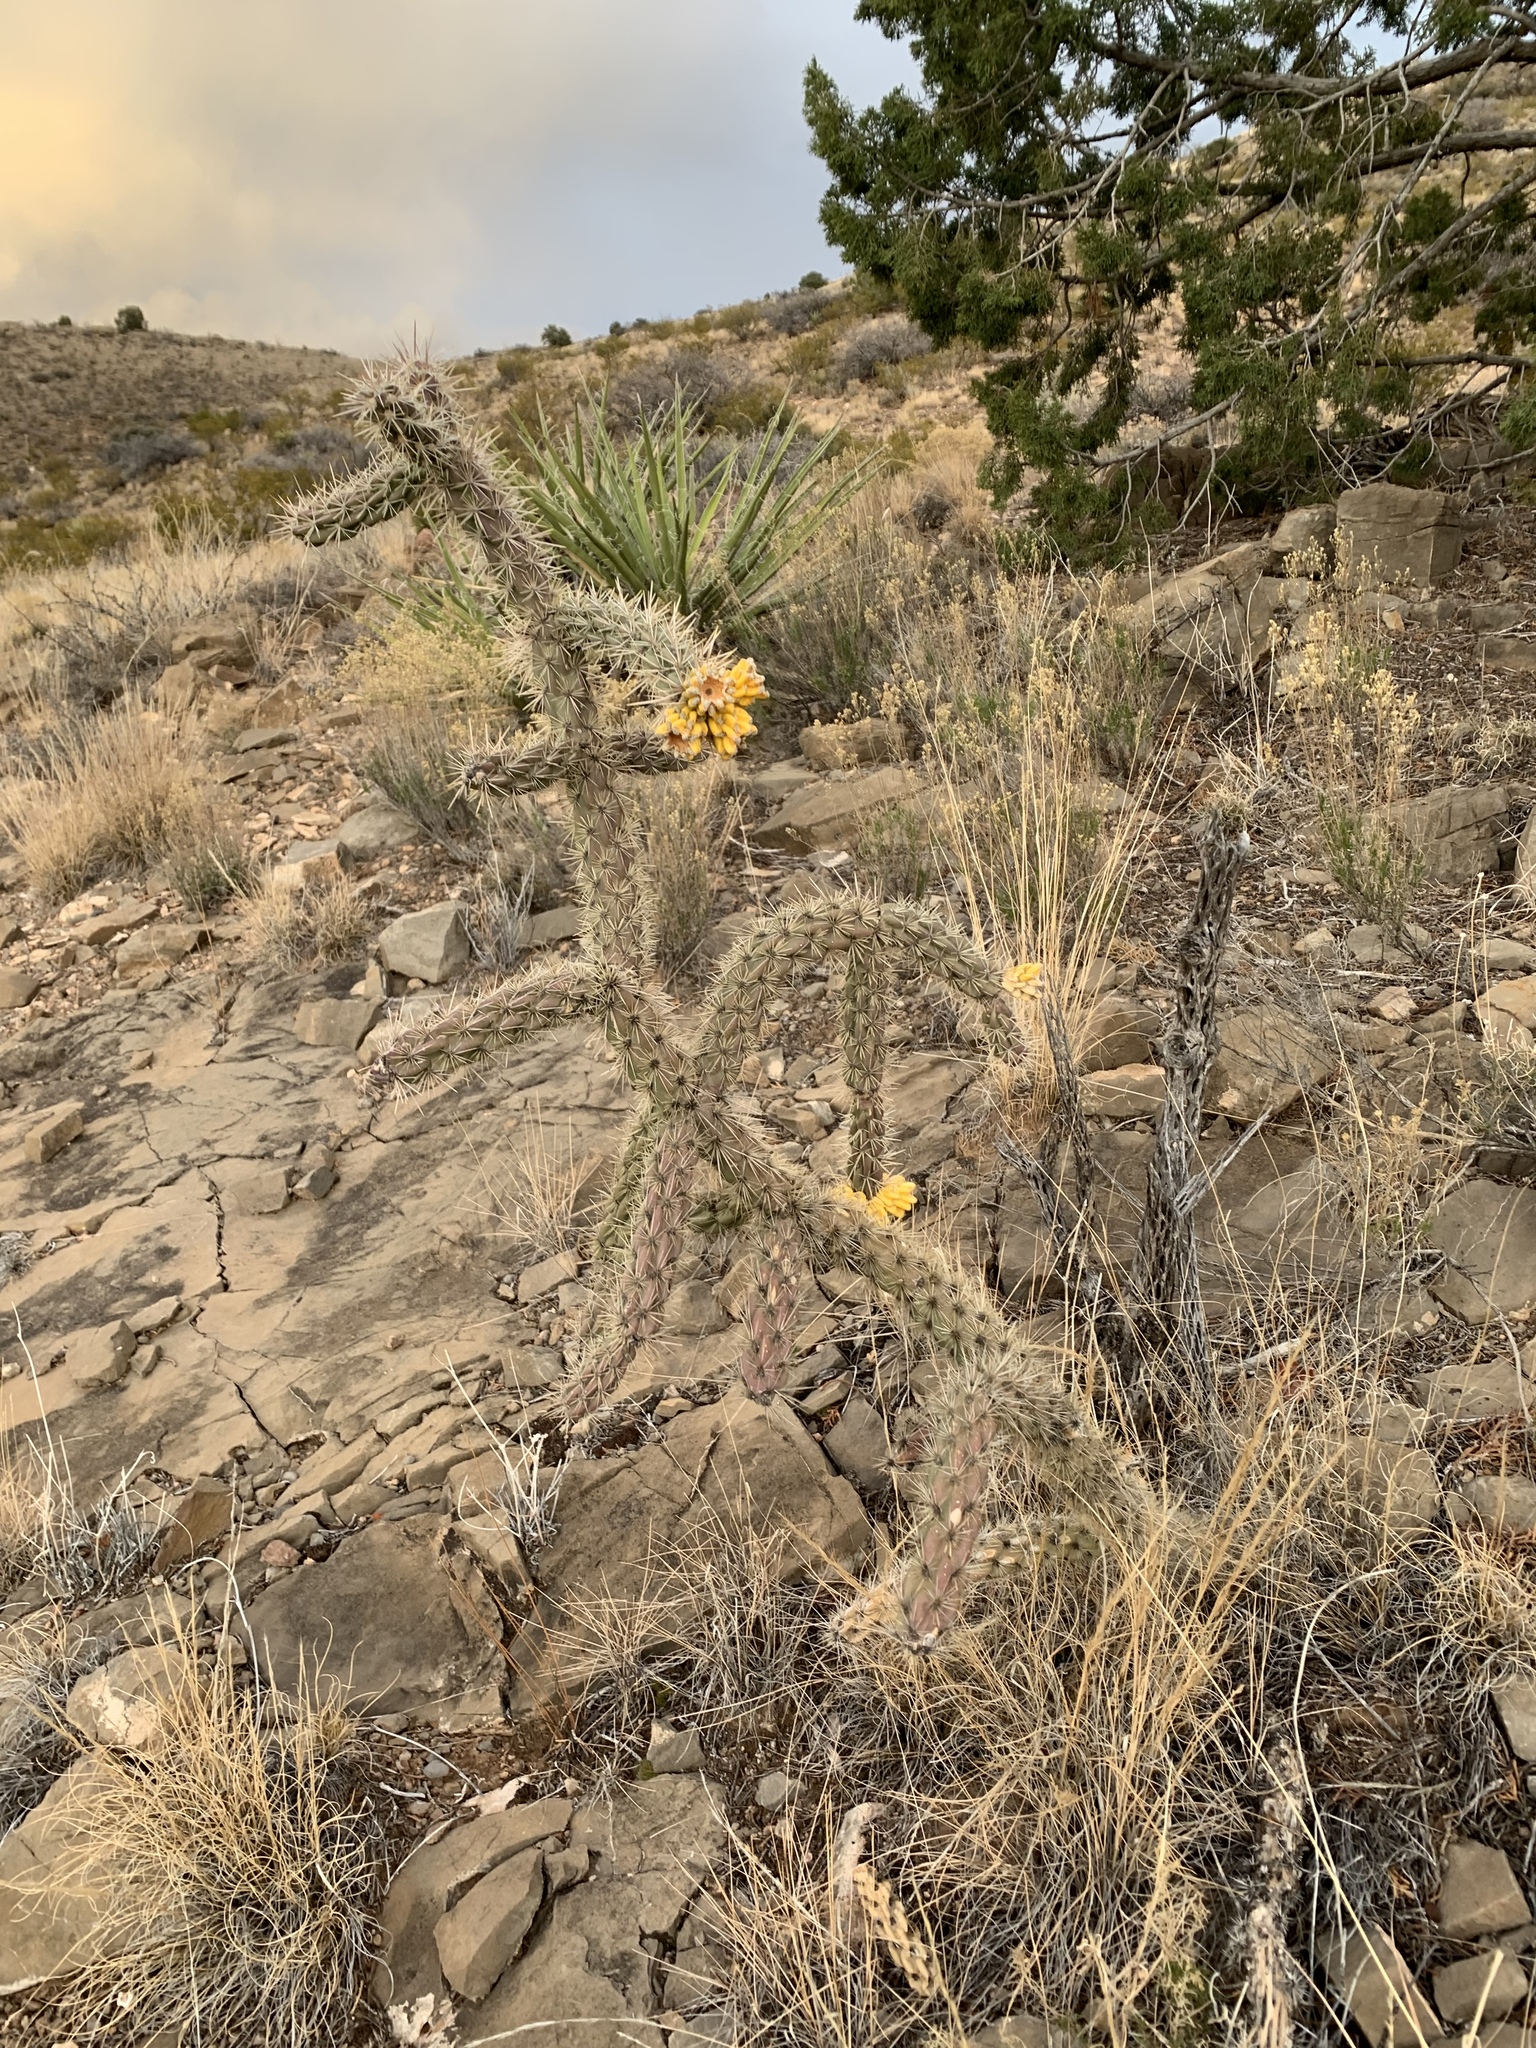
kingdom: Plantae
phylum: Tracheophyta
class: Magnoliopsida
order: Caryophyllales
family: Cactaceae
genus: Cylindropuntia
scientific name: Cylindropuntia imbricata
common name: Candelabrum cactus
